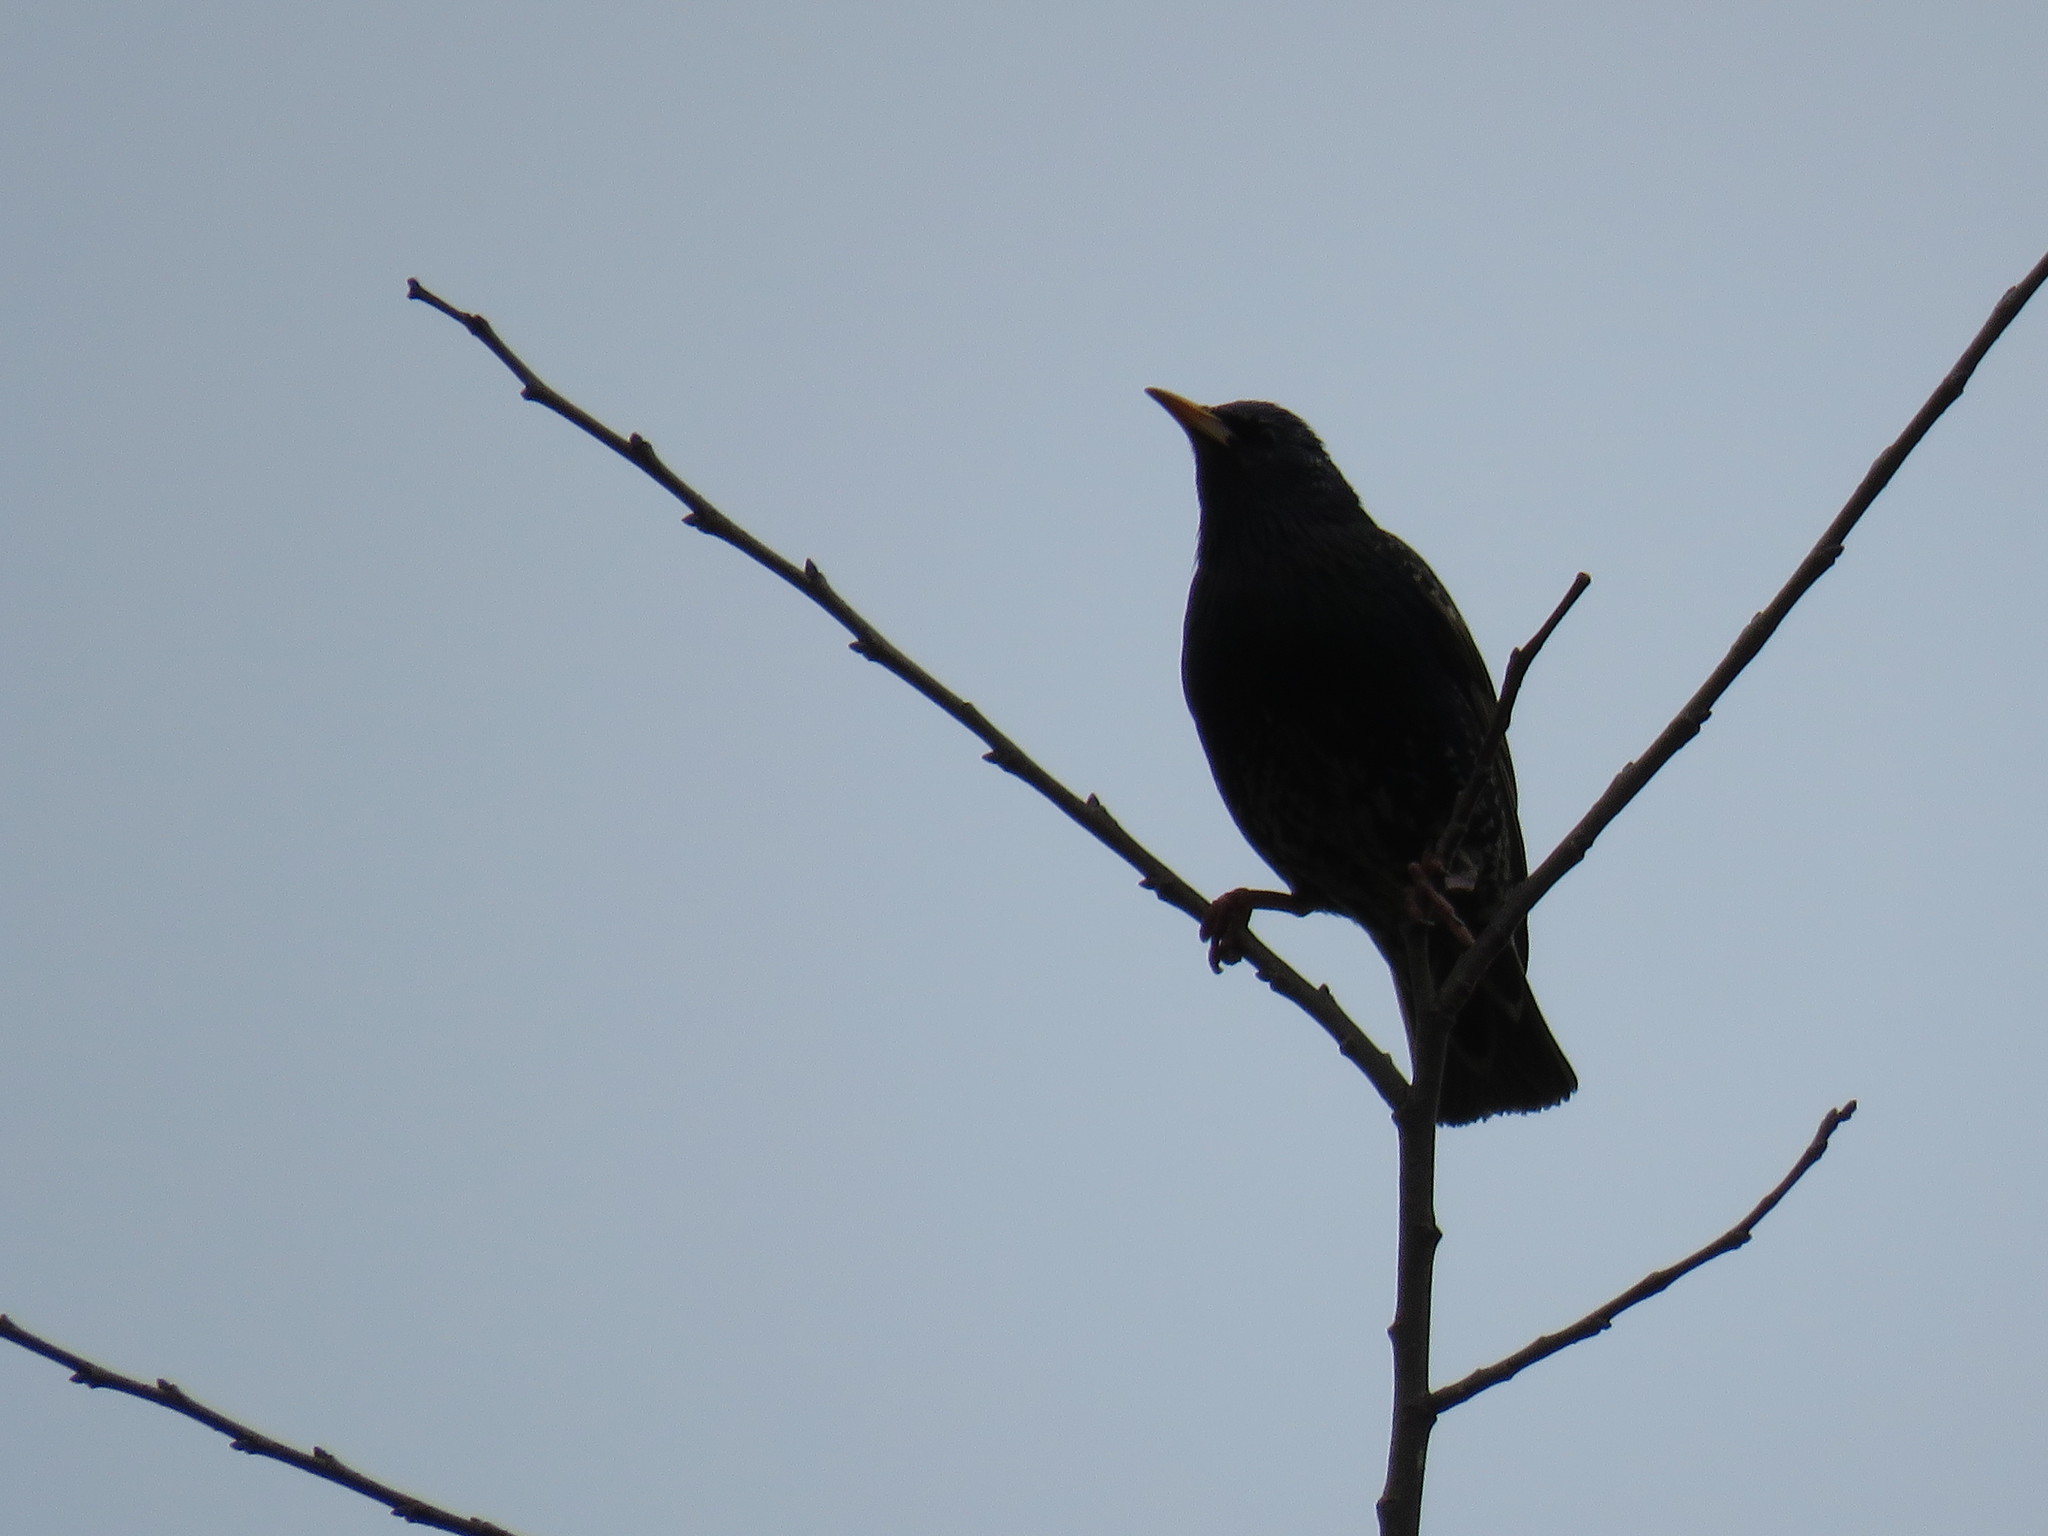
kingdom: Animalia
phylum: Chordata
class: Aves
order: Passeriformes
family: Sturnidae
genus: Sturnus
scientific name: Sturnus vulgaris
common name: Common starling
